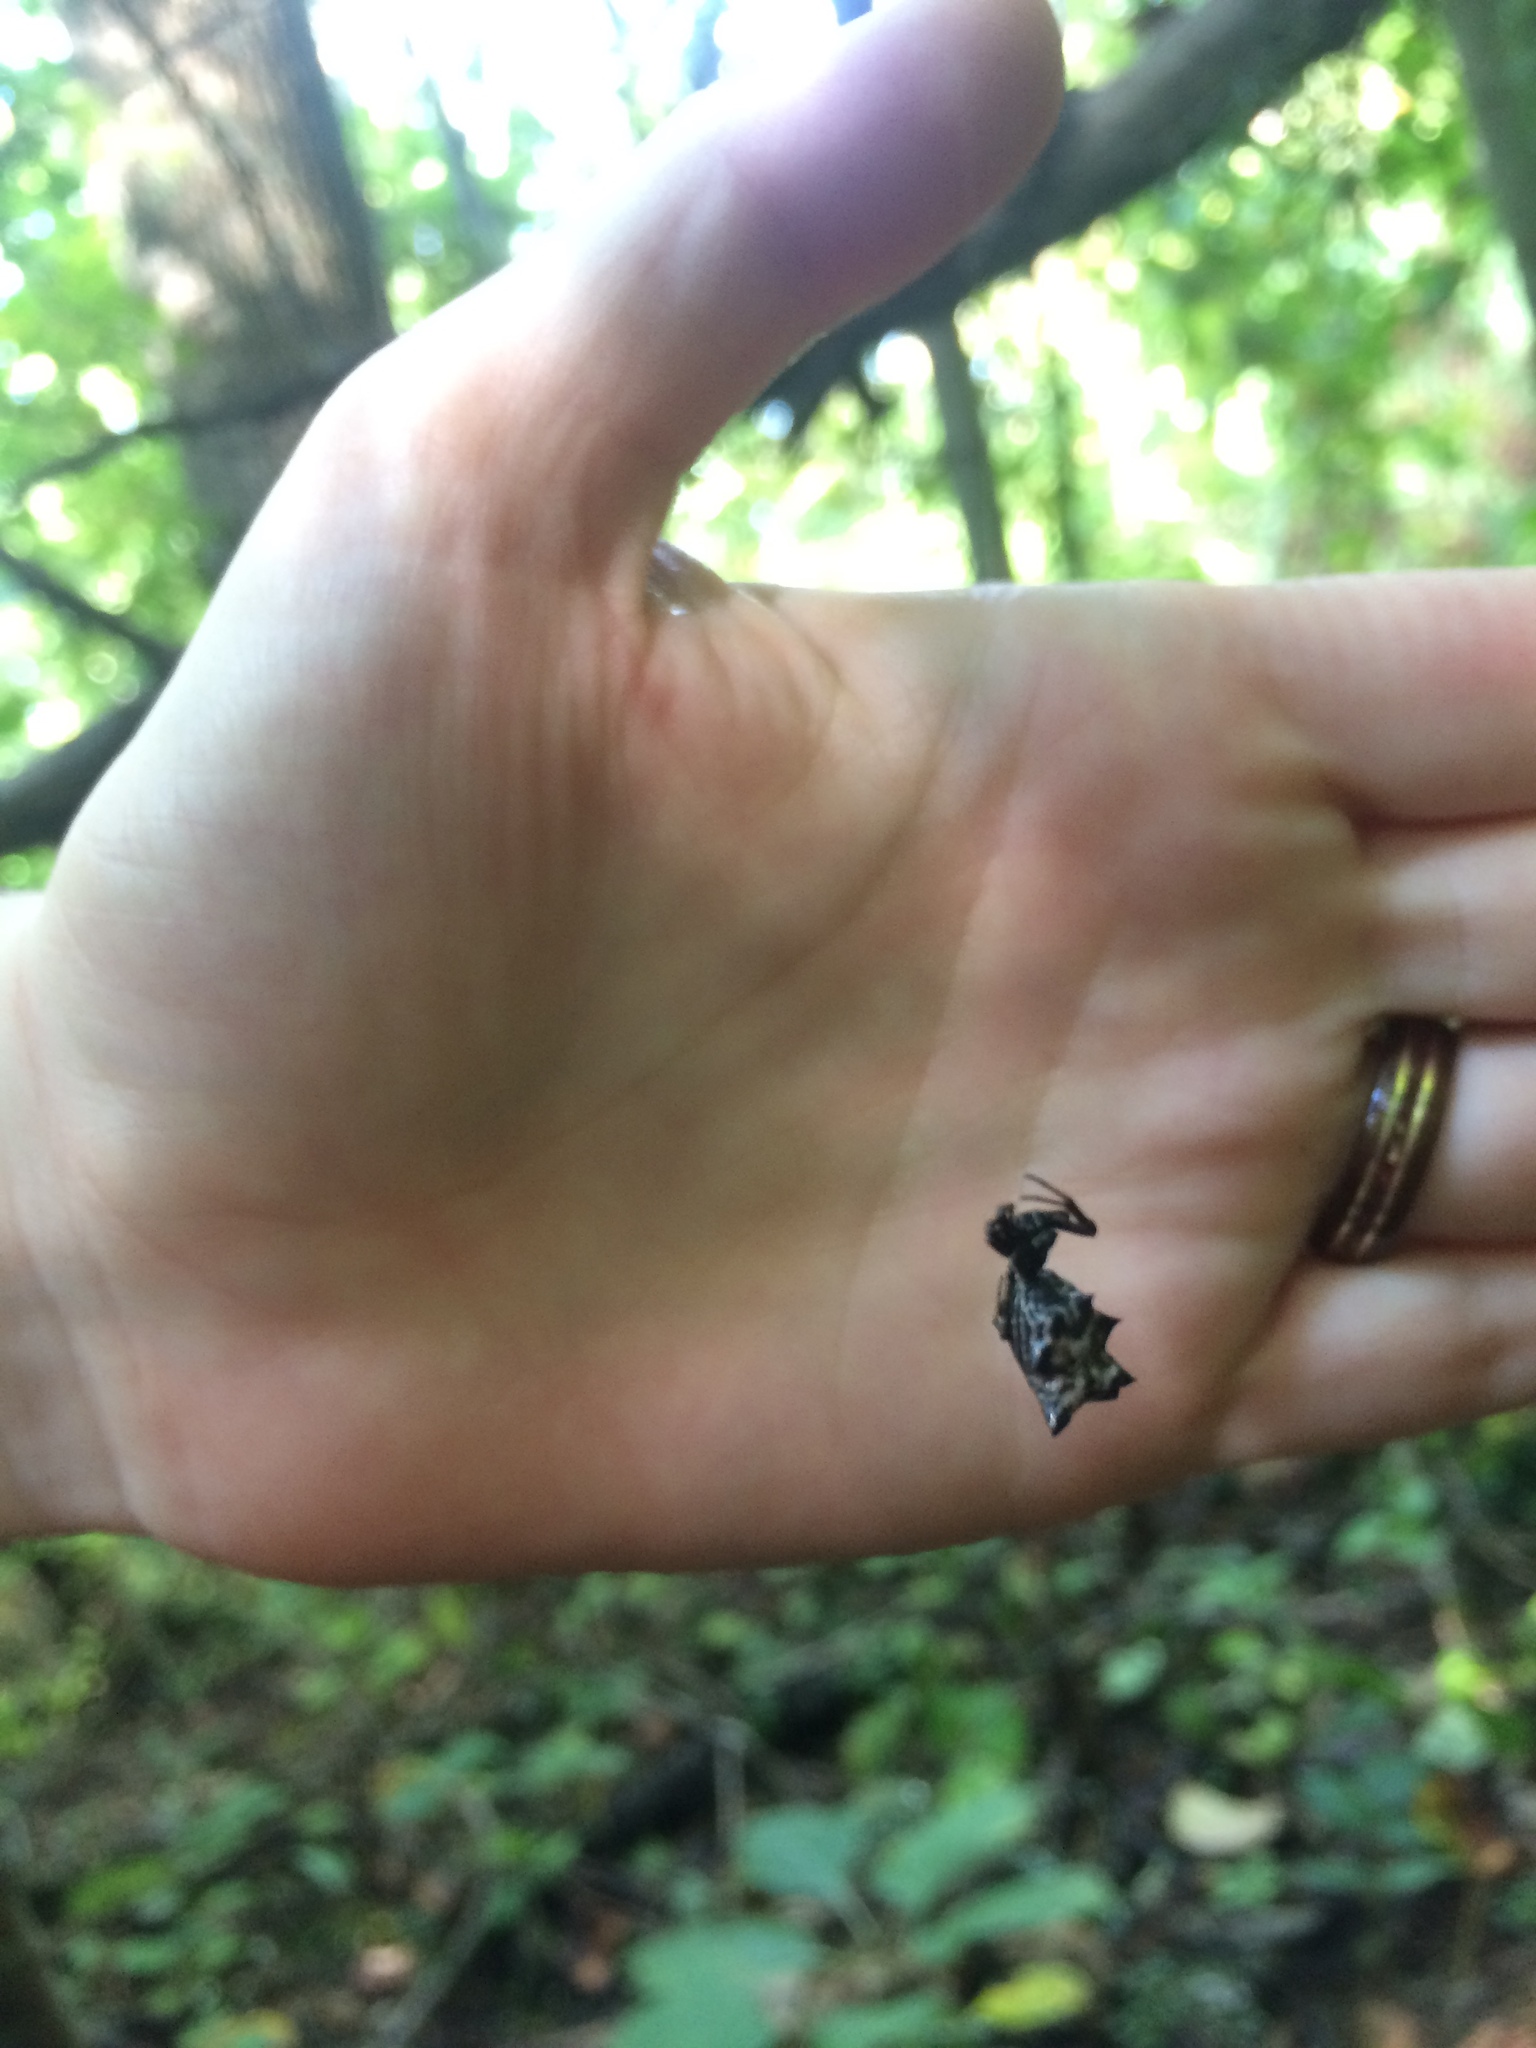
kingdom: Animalia
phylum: Arthropoda
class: Arachnida
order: Araneae
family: Araneidae
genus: Micrathena
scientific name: Micrathena gracilis
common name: Orb weavers
